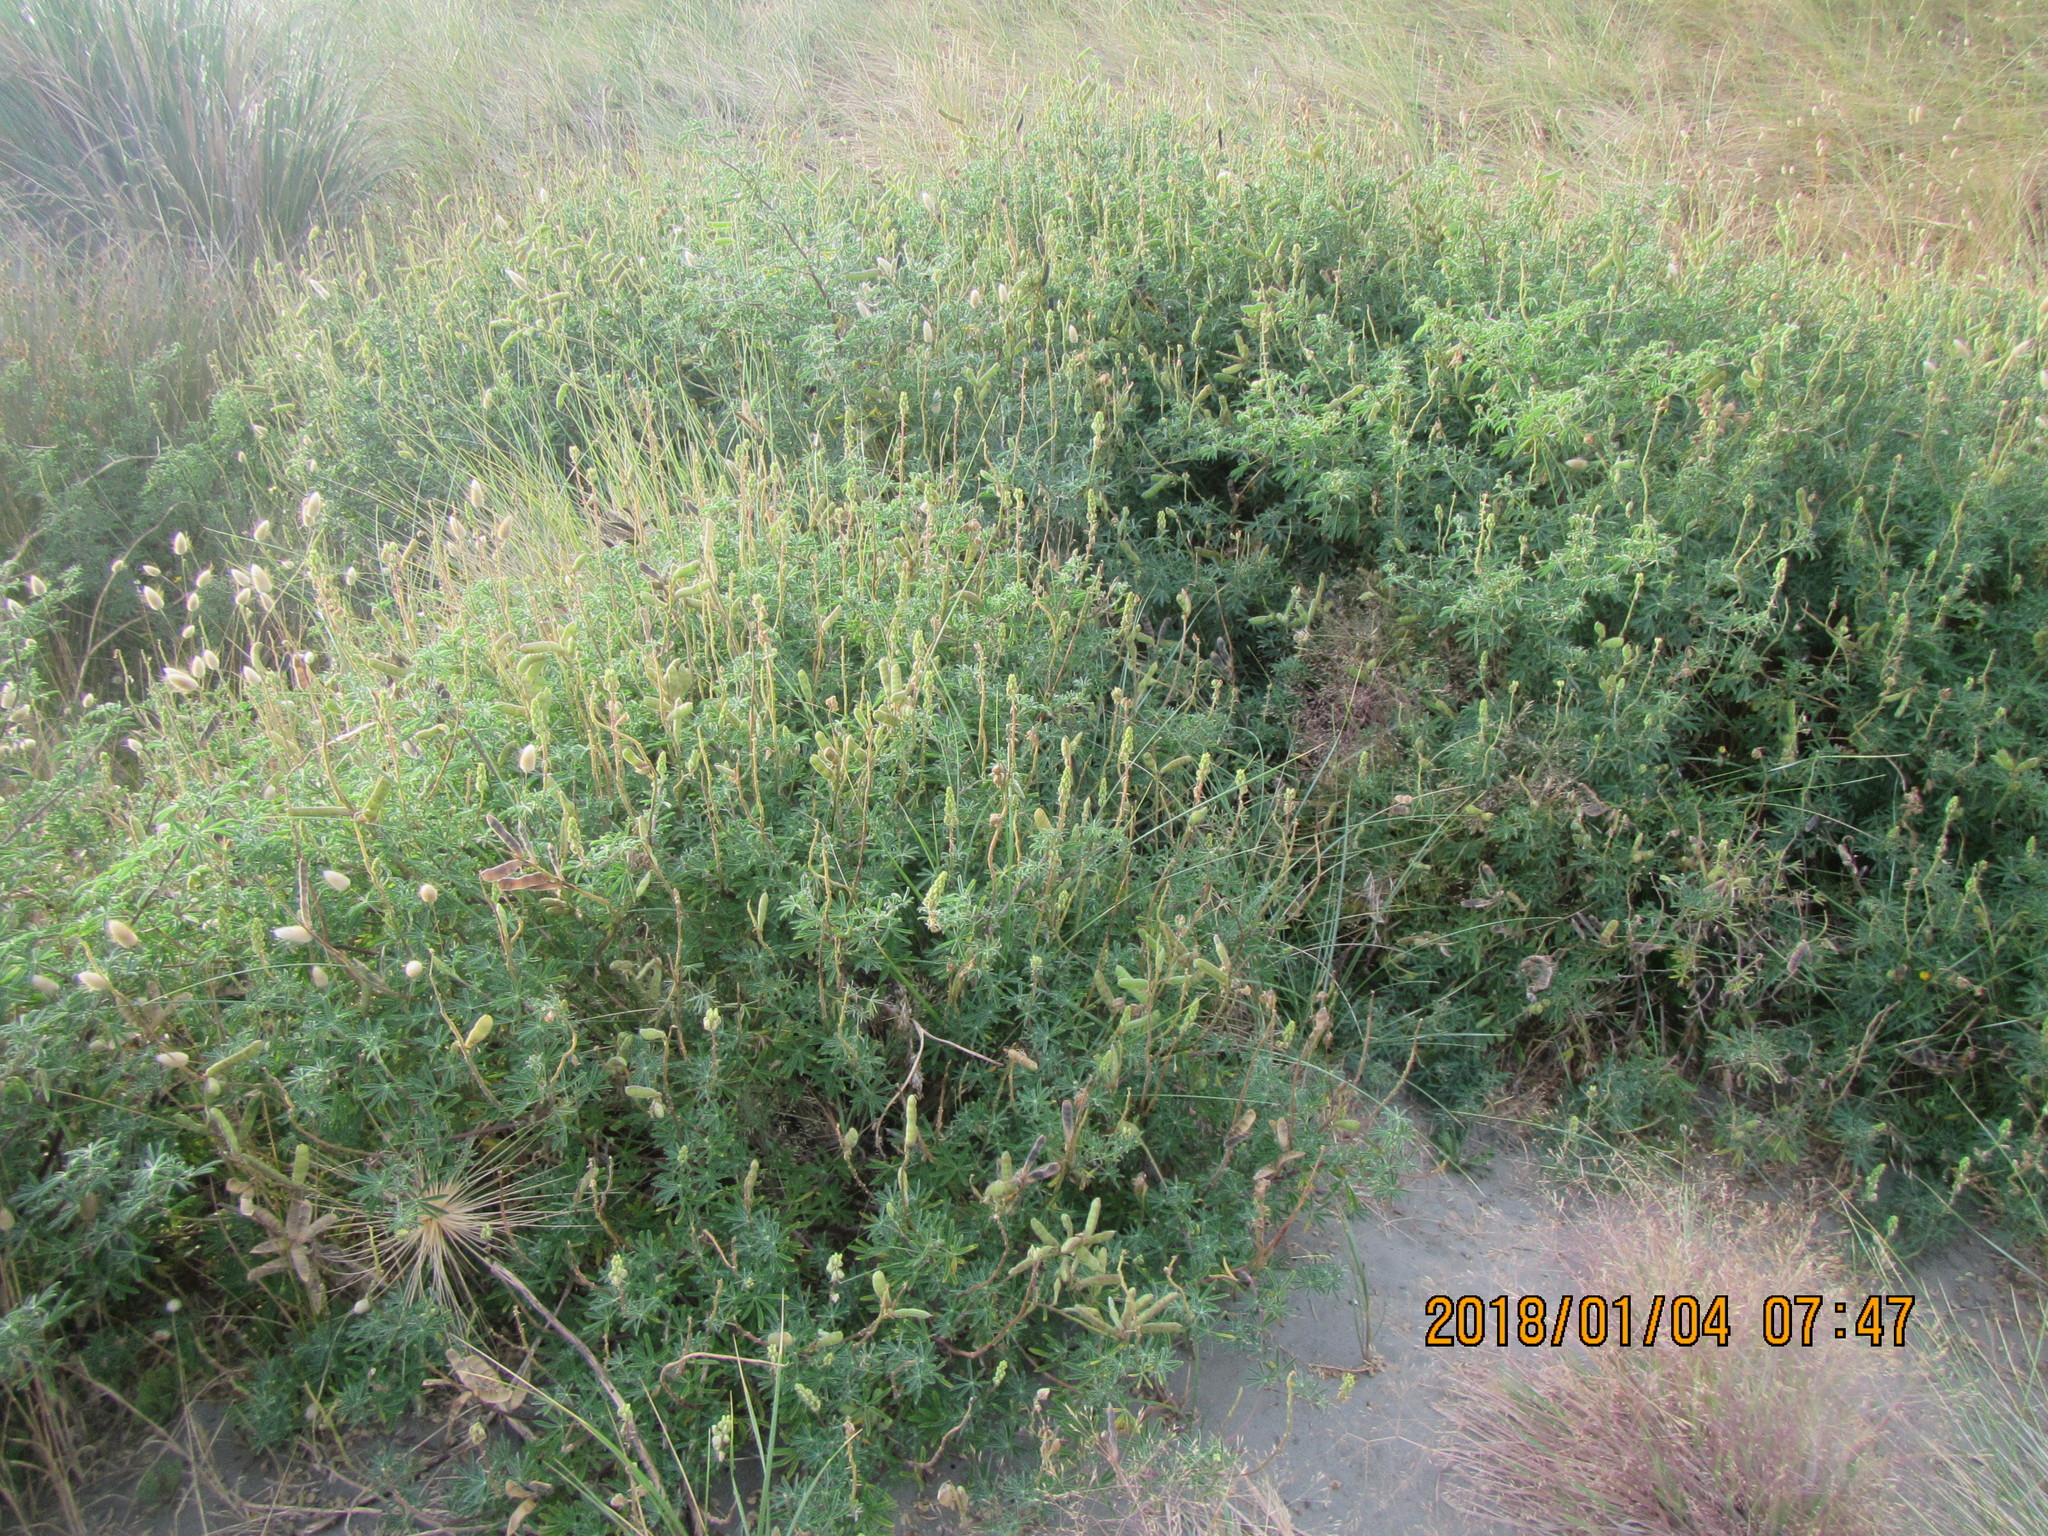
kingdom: Plantae
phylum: Tracheophyta
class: Magnoliopsida
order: Fabales
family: Fabaceae
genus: Lupinus
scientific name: Lupinus arboreus
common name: Yellow bush lupine
